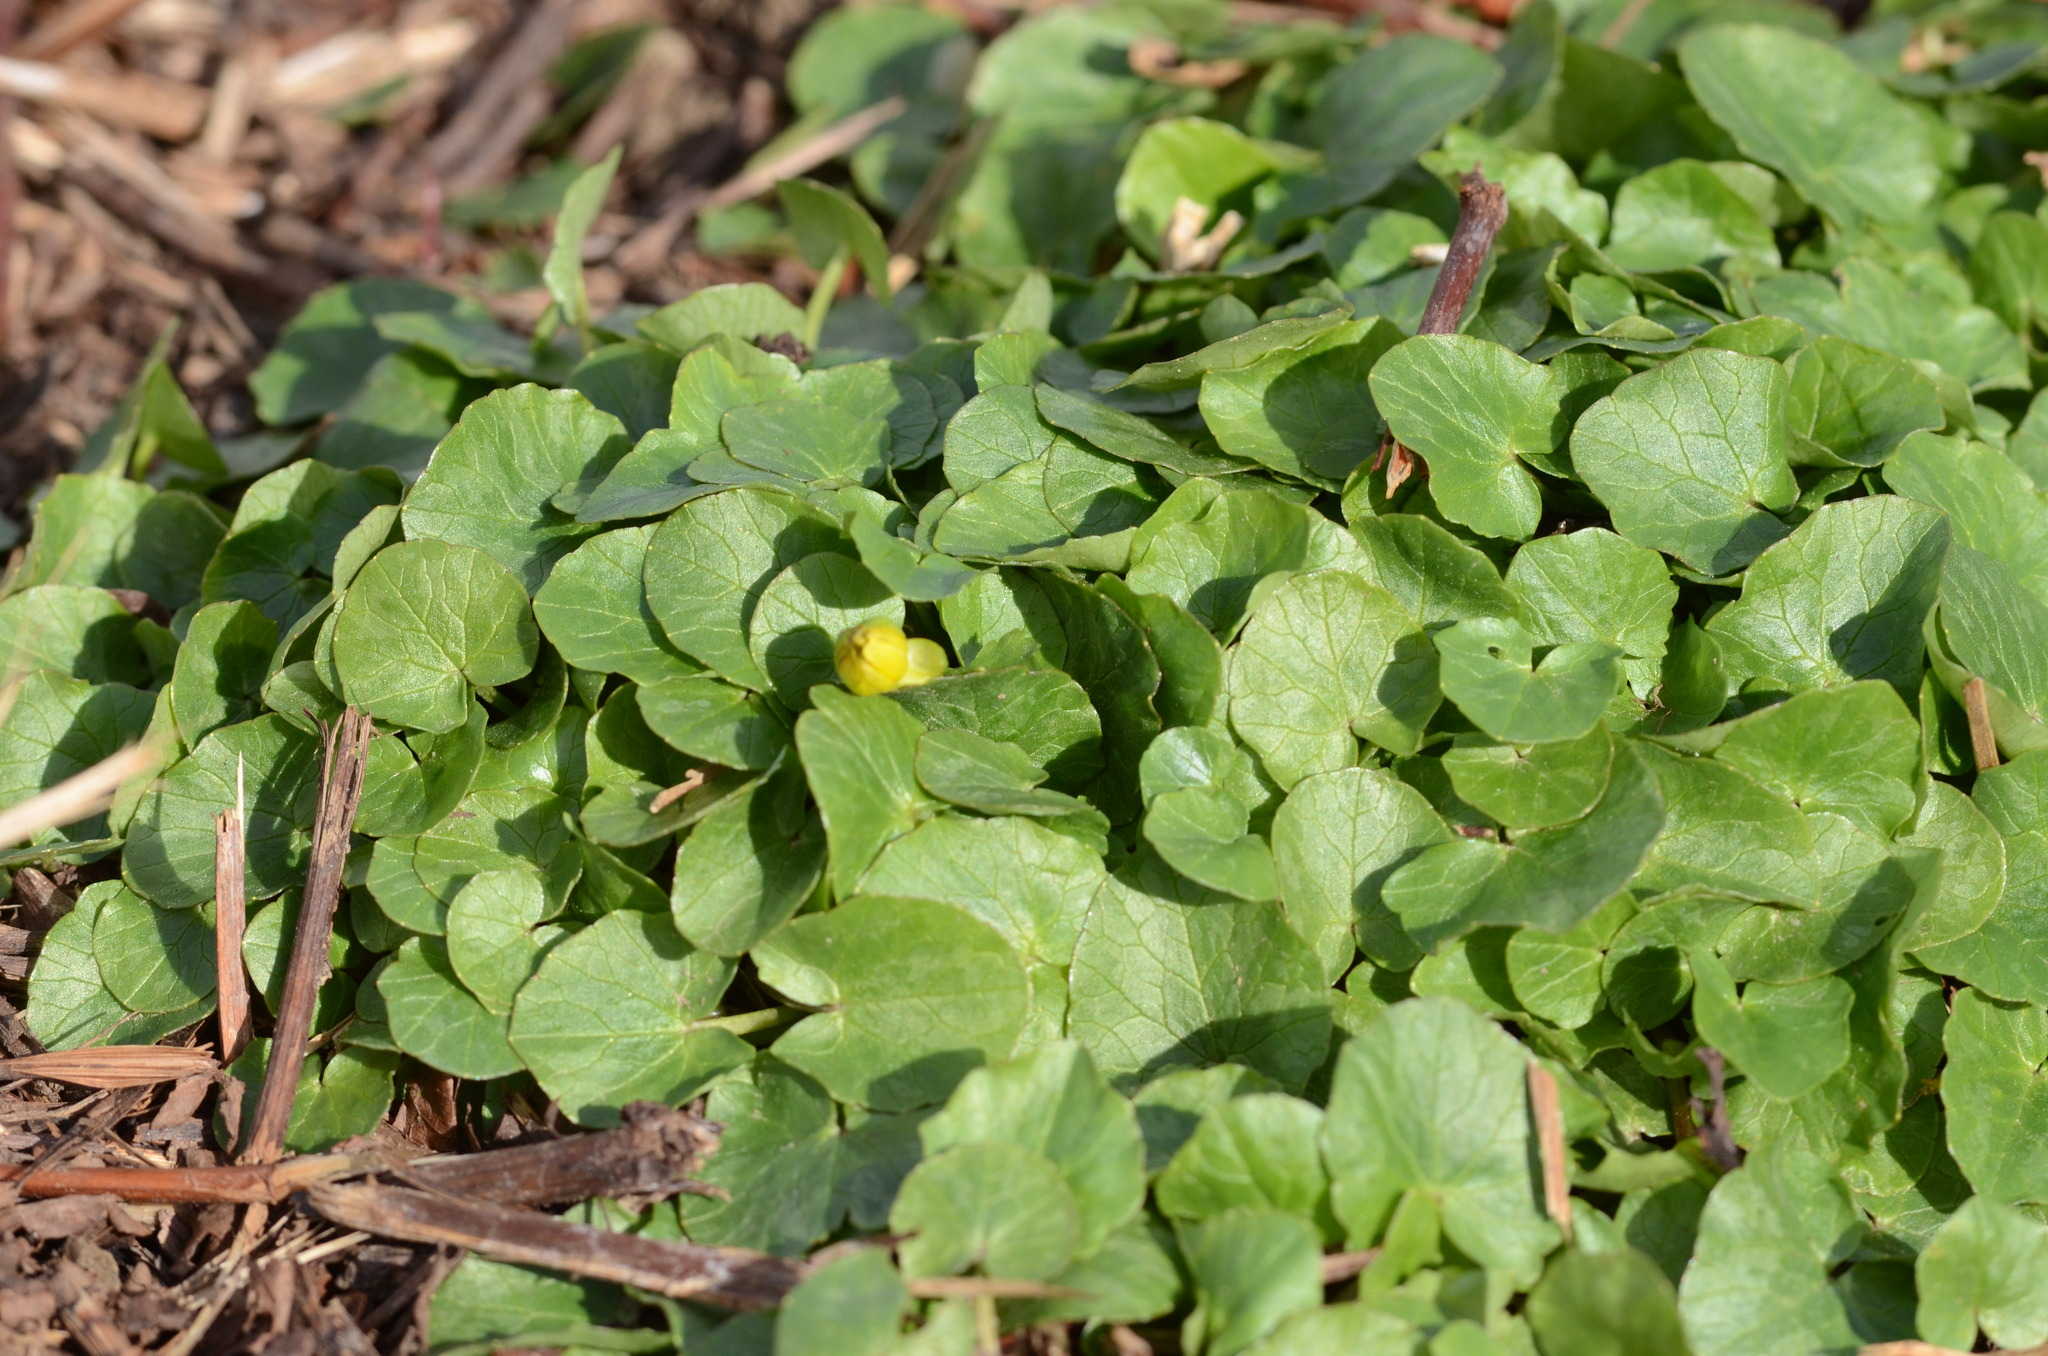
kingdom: Plantae
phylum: Tracheophyta
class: Magnoliopsida
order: Ranunculales
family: Ranunculaceae
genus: Ficaria
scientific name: Ficaria verna
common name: Lesser celandine
